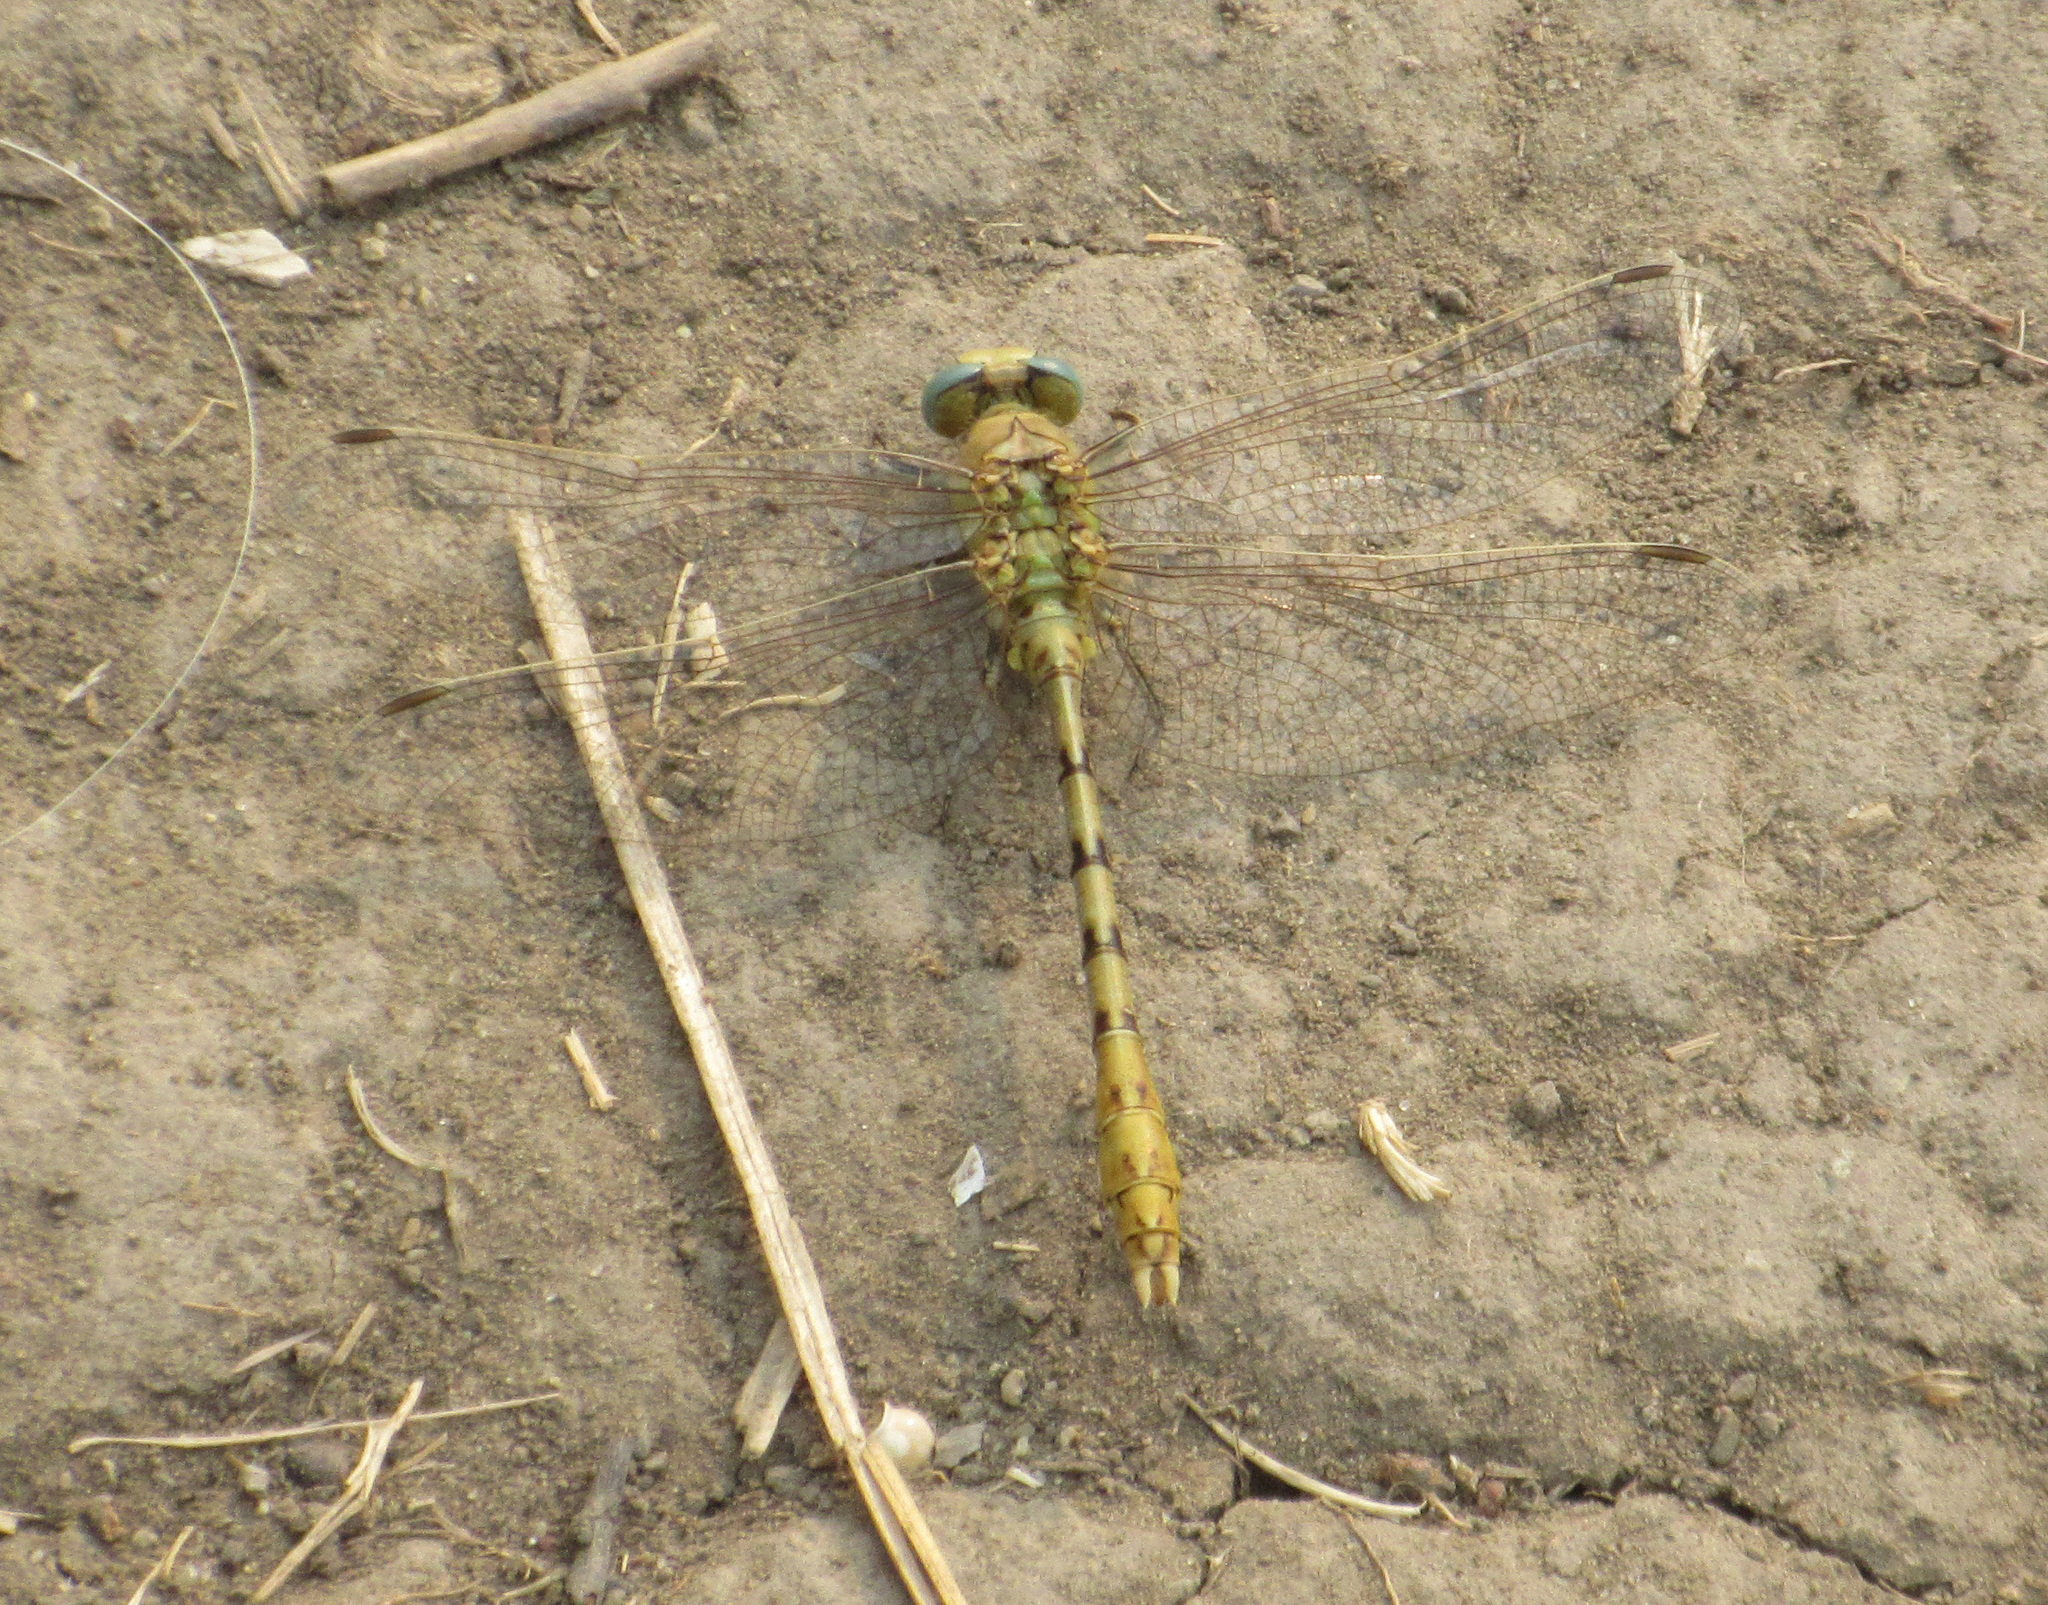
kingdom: Animalia
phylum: Arthropoda
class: Insecta
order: Odonata
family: Gomphidae
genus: Ophiogomphus
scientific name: Ophiogomphus severus
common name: Pale snaketail
